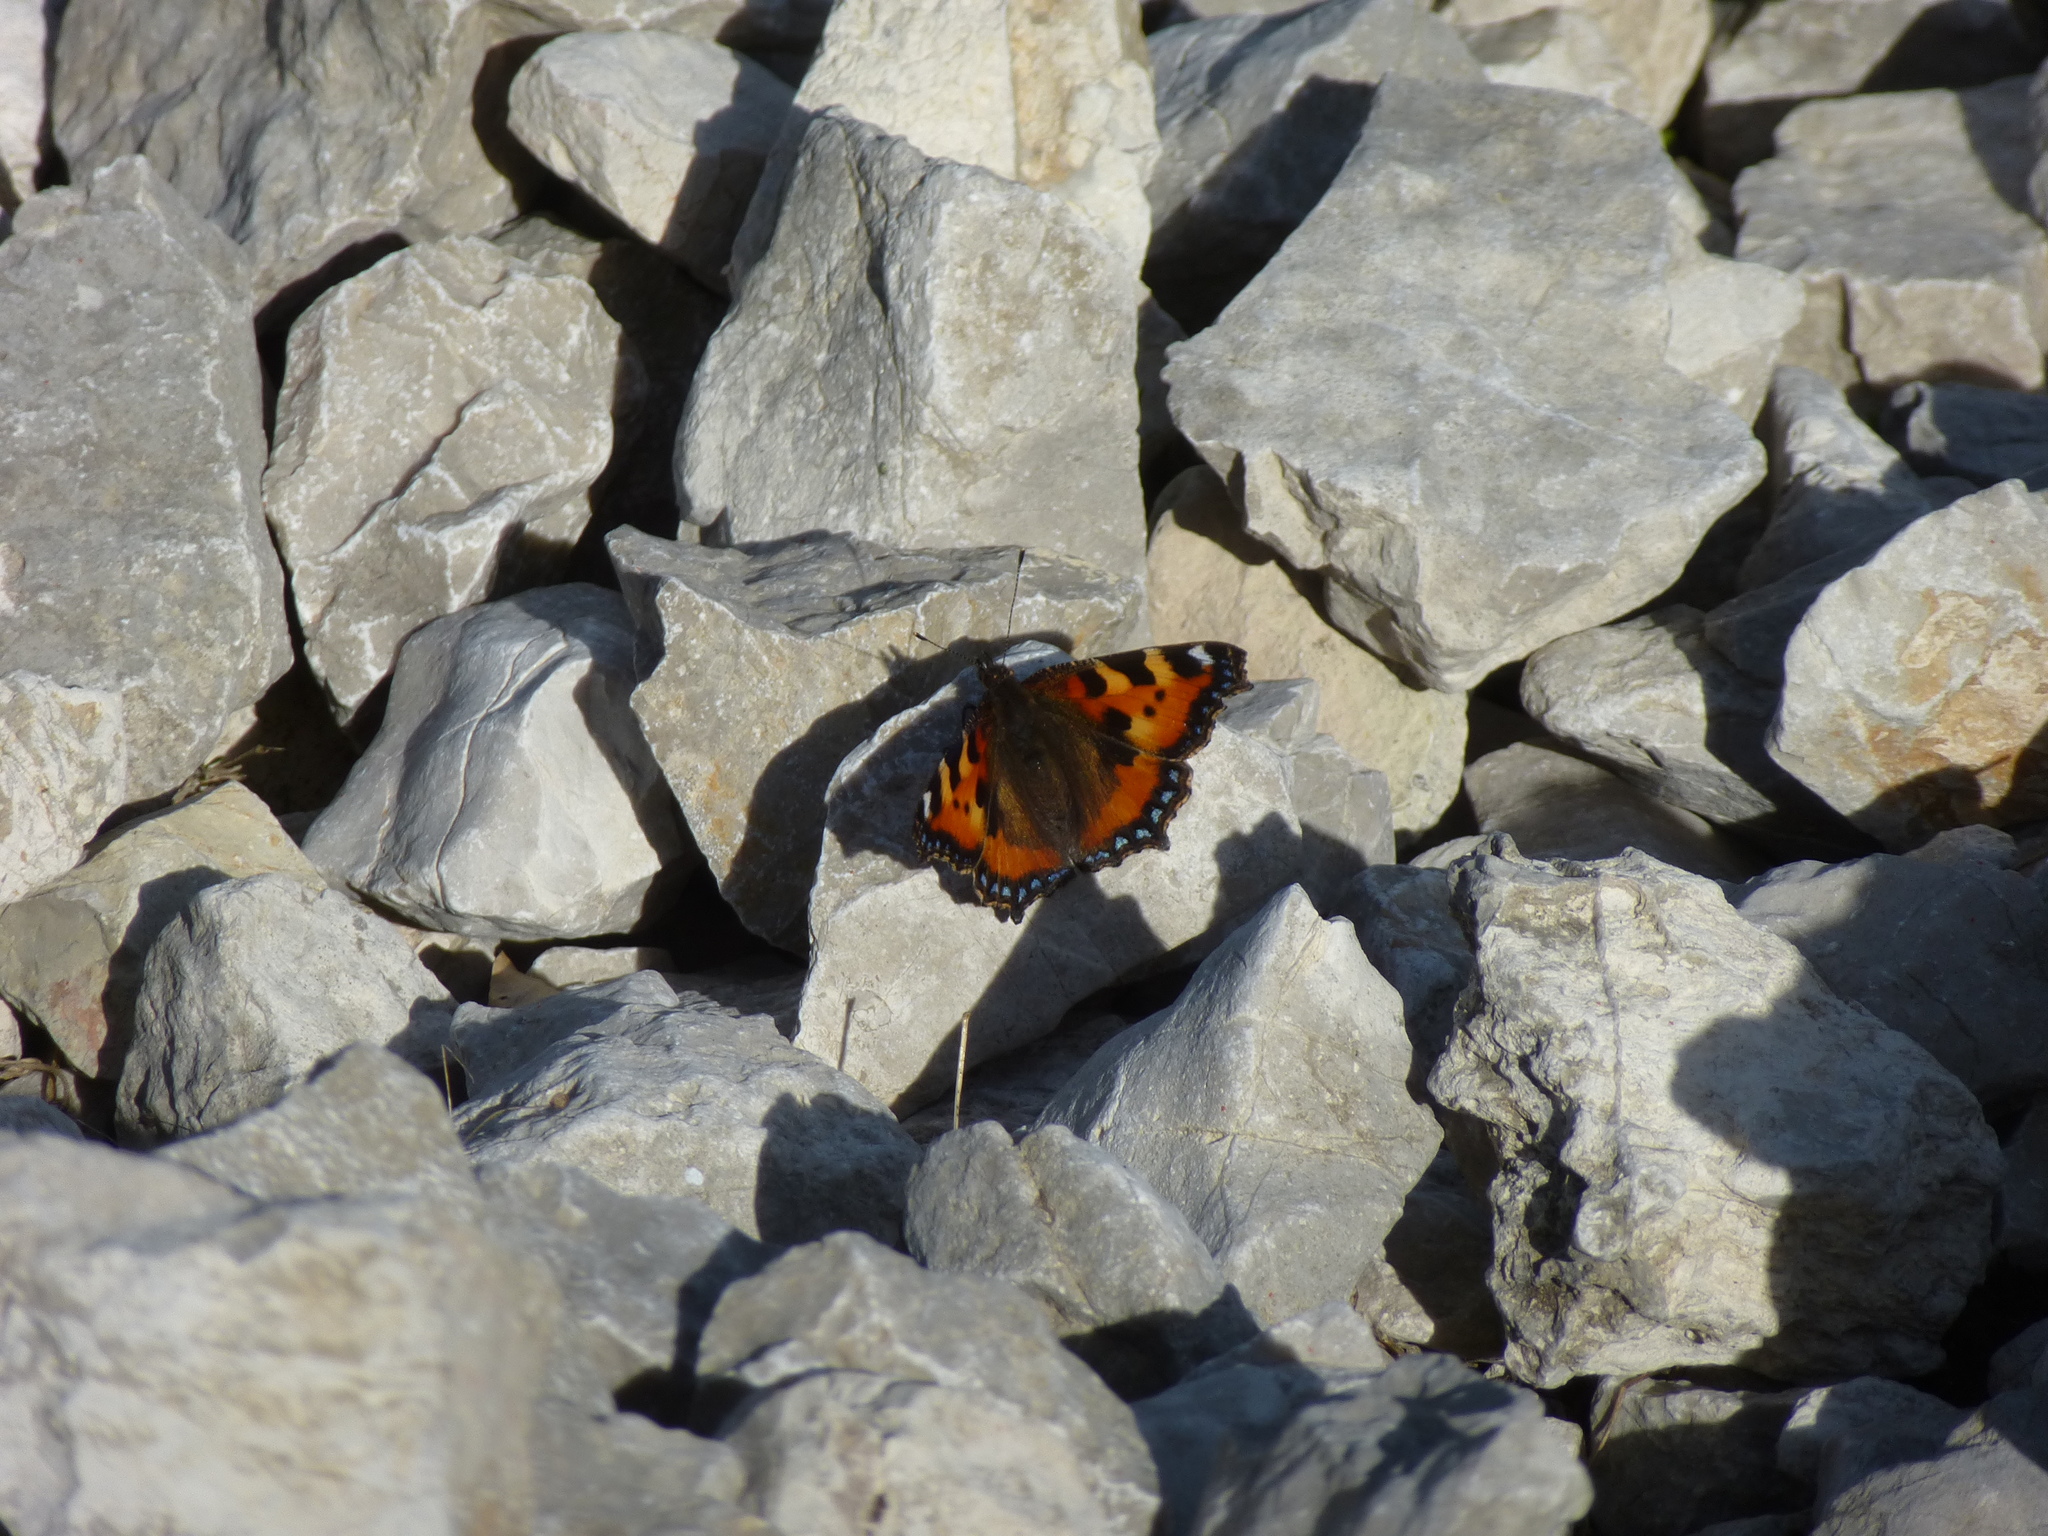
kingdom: Animalia
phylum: Arthropoda
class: Insecta
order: Lepidoptera
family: Nymphalidae
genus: Aglais
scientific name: Aglais urticae
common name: Small tortoiseshell
